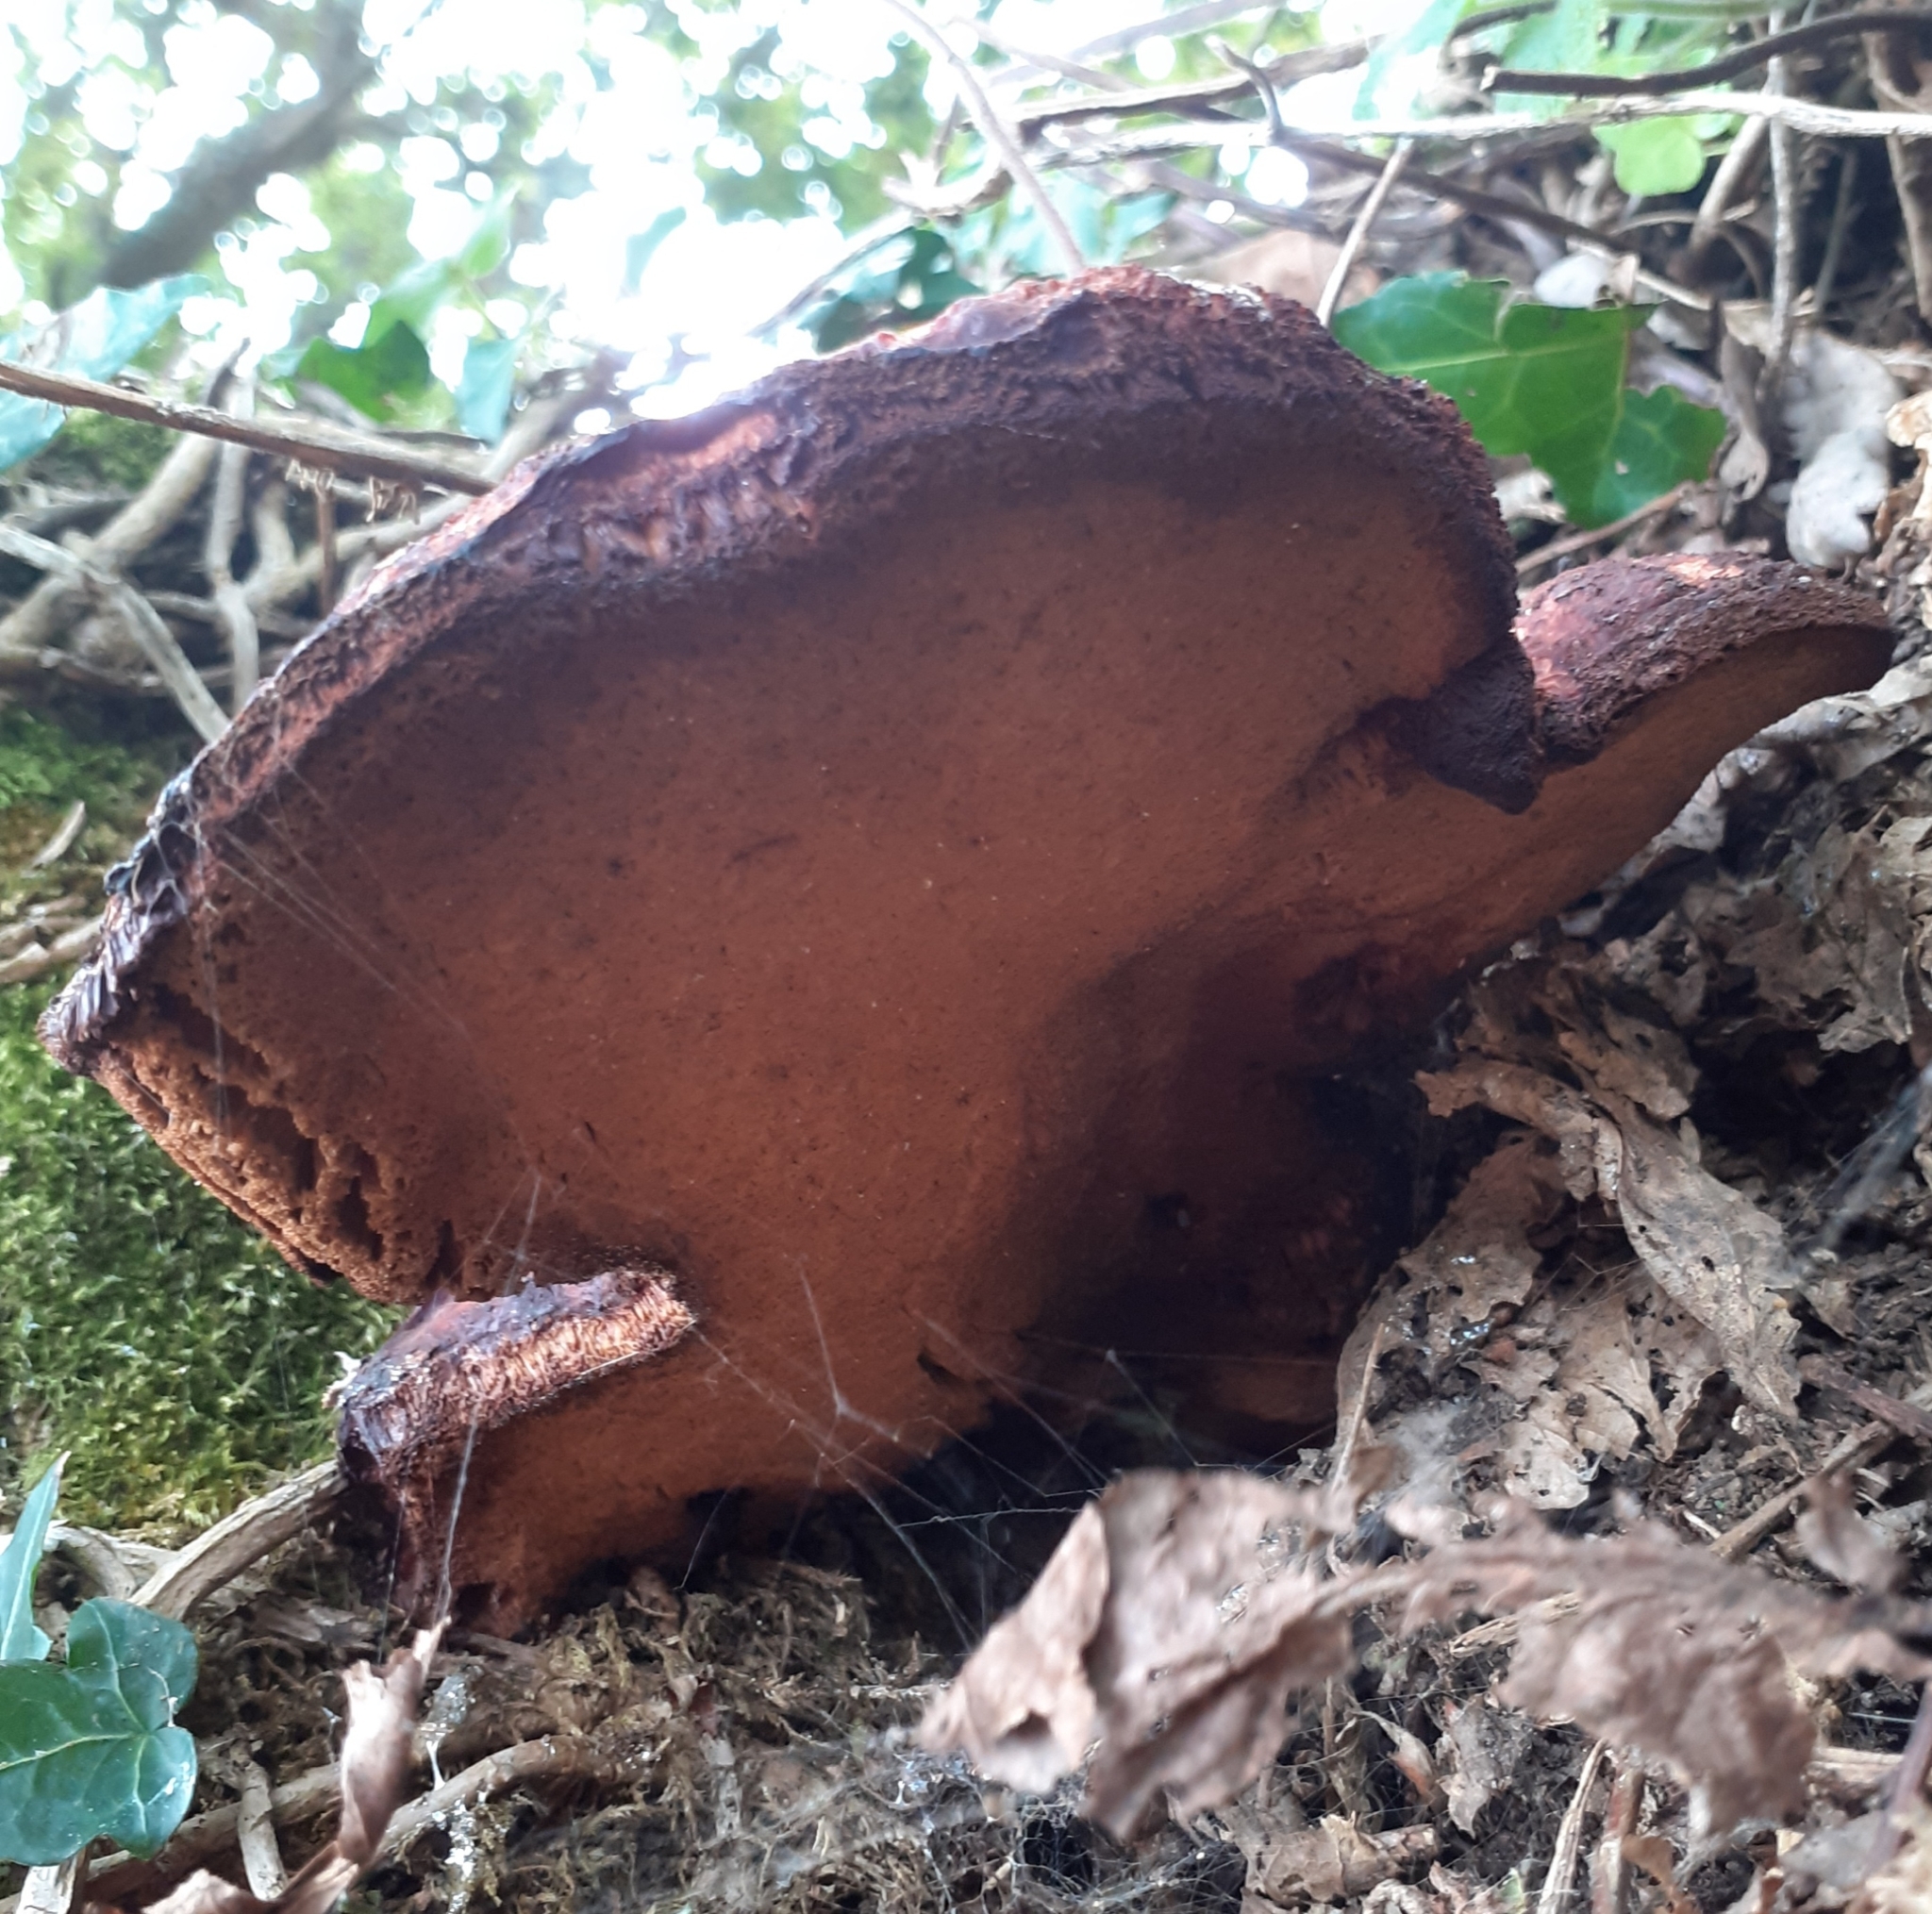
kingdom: Fungi
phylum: Basidiomycota
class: Agaricomycetes
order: Agaricales
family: Fistulinaceae
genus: Fistulina
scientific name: Fistulina hepatica
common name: Beef-steak fungus
